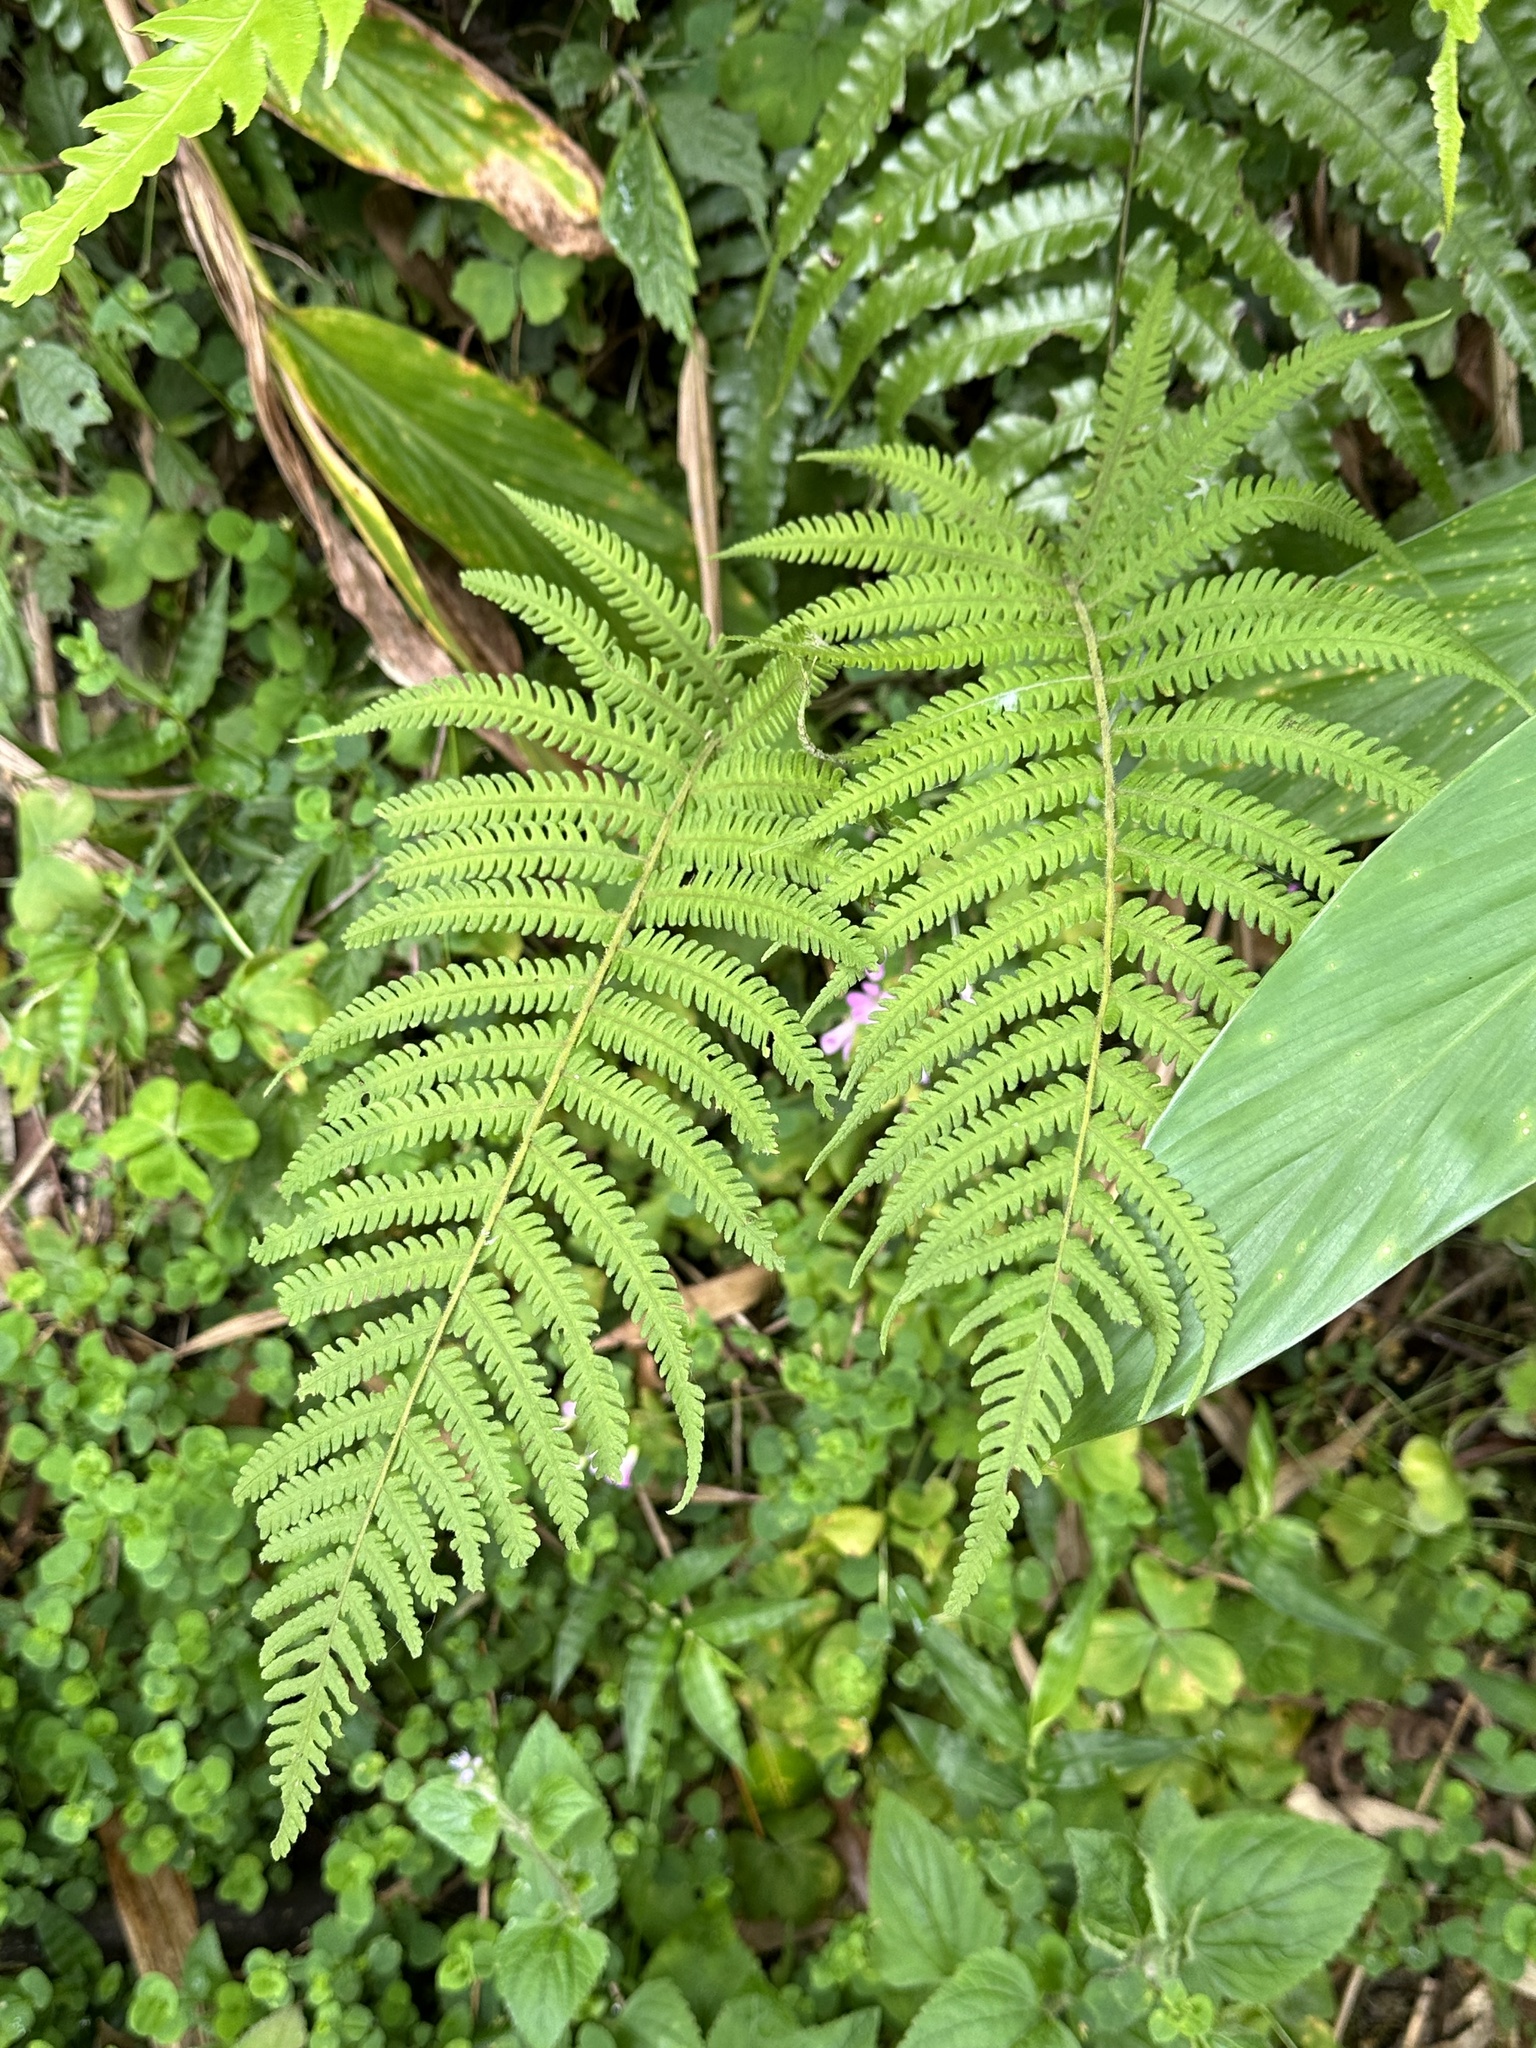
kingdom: Plantae
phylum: Tracheophyta
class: Polypodiopsida
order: Polypodiales
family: Thelypteridaceae
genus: Christella
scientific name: Christella parasitica
